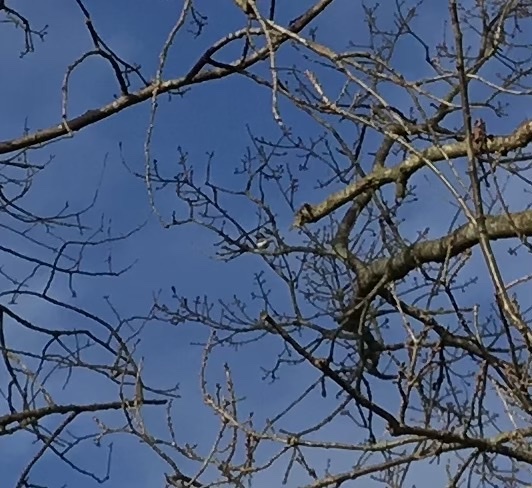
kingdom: Animalia
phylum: Chordata
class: Aves
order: Passeriformes
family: Motacillidae
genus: Motacilla
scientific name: Motacilla alba
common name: White wagtail
